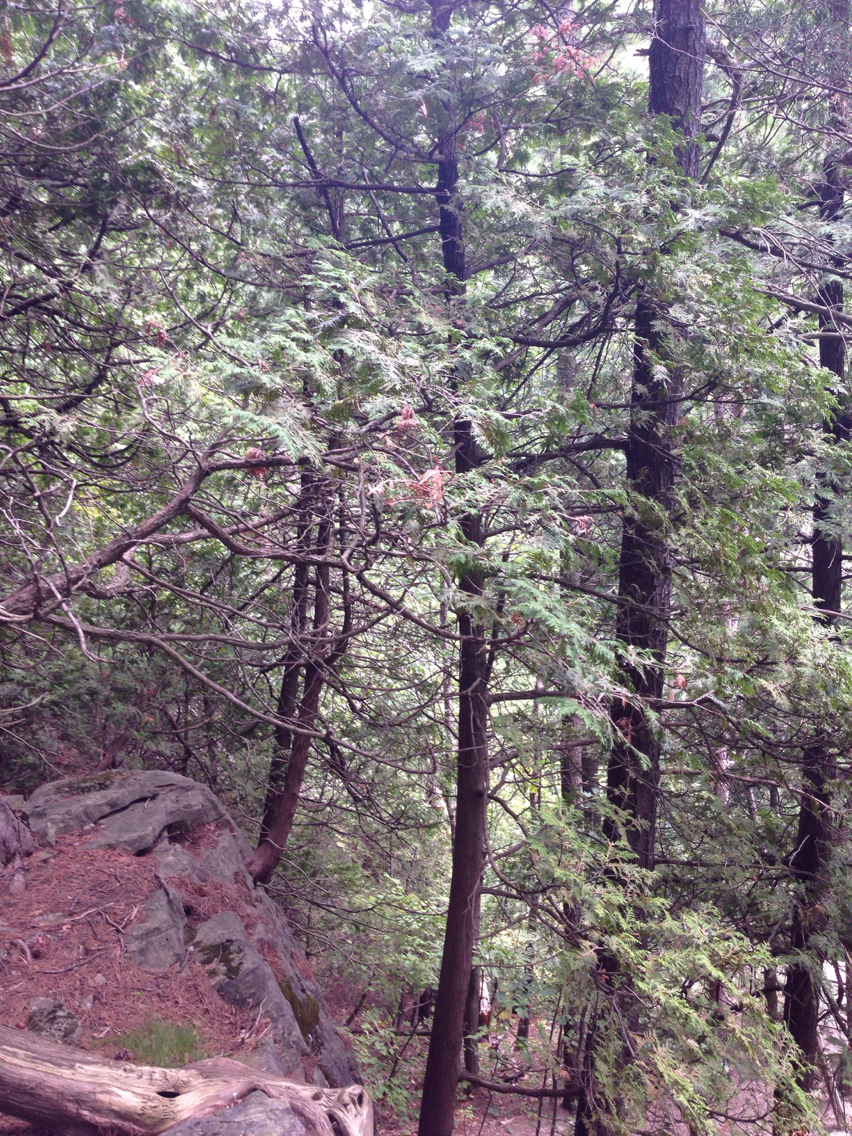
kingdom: Plantae
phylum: Tracheophyta
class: Pinopsida
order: Pinales
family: Cupressaceae
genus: Thuja
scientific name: Thuja occidentalis
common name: Northern white-cedar
